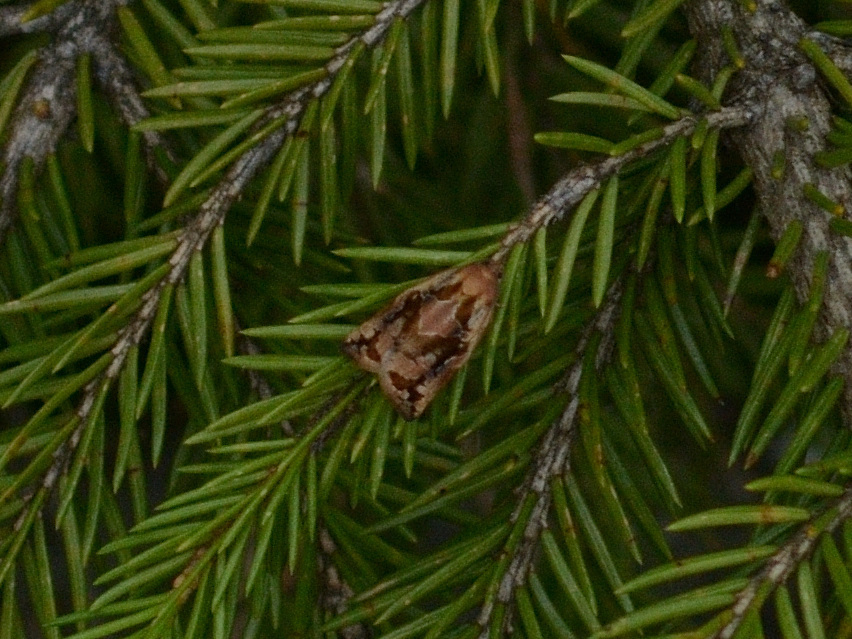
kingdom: Animalia
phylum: Arthropoda
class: Insecta
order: Lepidoptera
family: Tortricidae
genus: Archips
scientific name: Archips oporana
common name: Sprice tortrix moth
